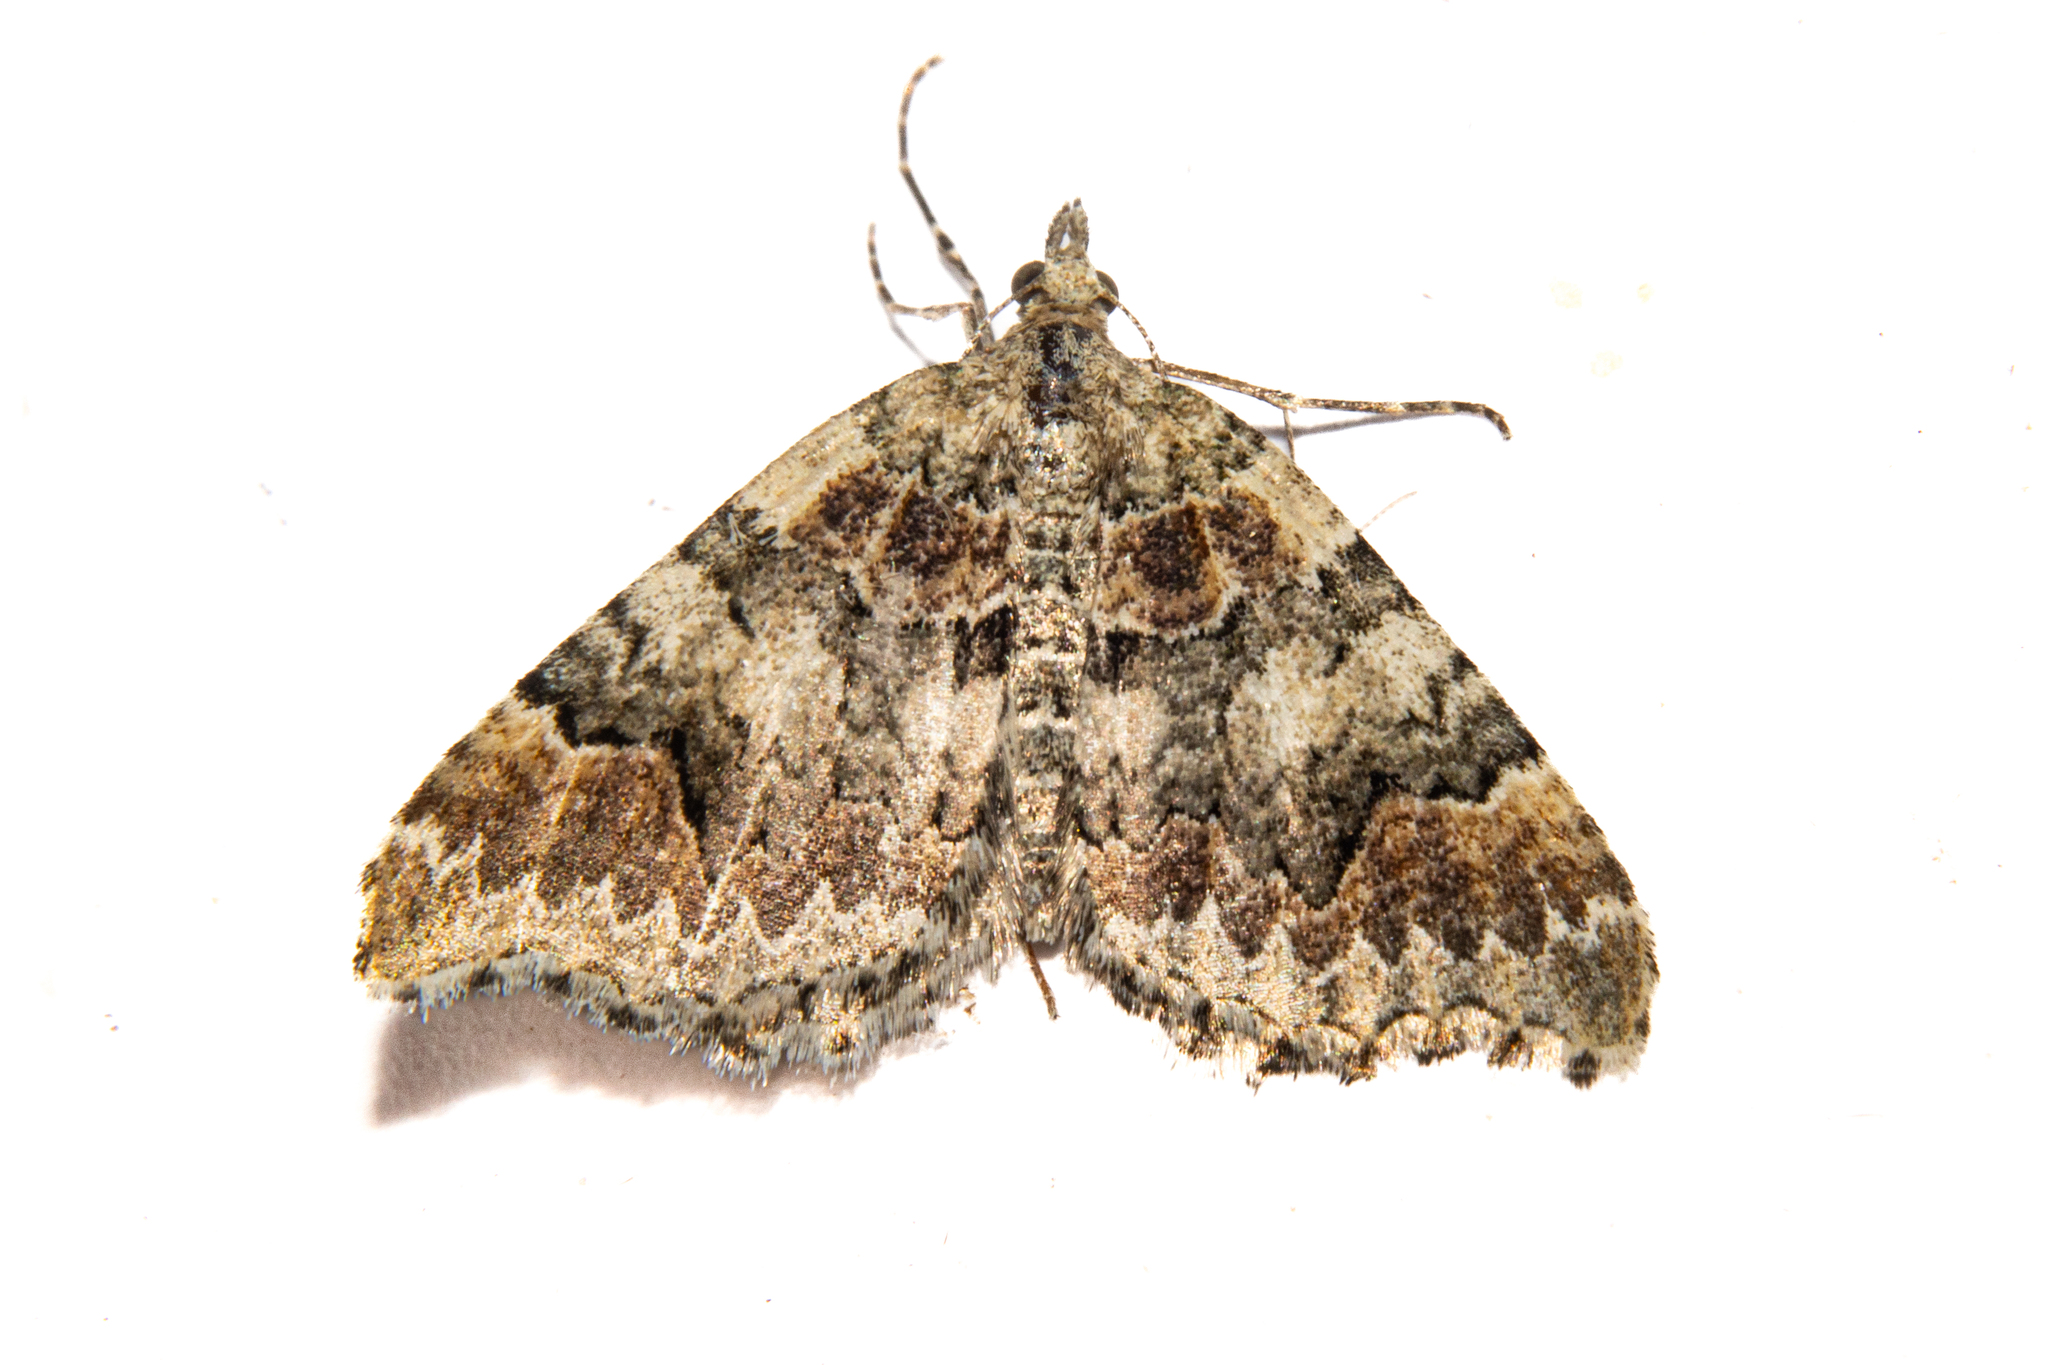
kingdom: Animalia
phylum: Arthropoda
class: Insecta
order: Lepidoptera
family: Geometridae
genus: Helastia
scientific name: Helastia cryptica
